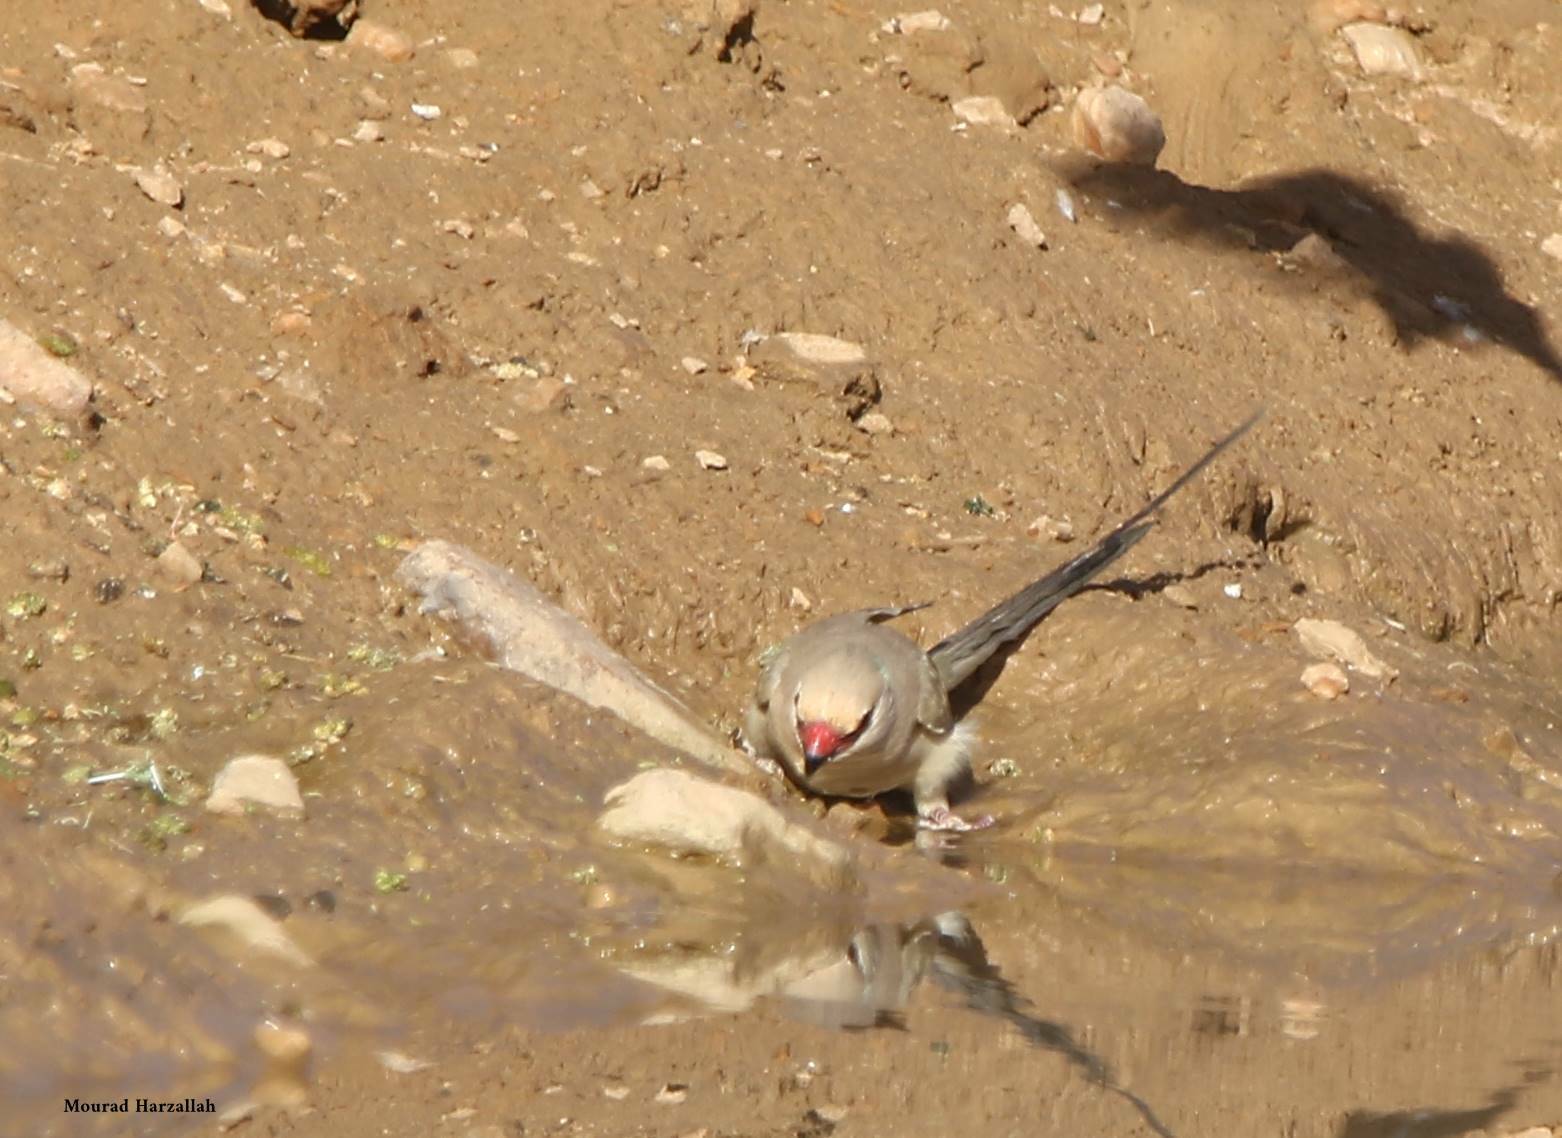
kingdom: Animalia
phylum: Chordata
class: Aves
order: Coliiformes
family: Coliidae
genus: Urocolius
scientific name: Urocolius macrourus
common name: Blue-naped mousebird
